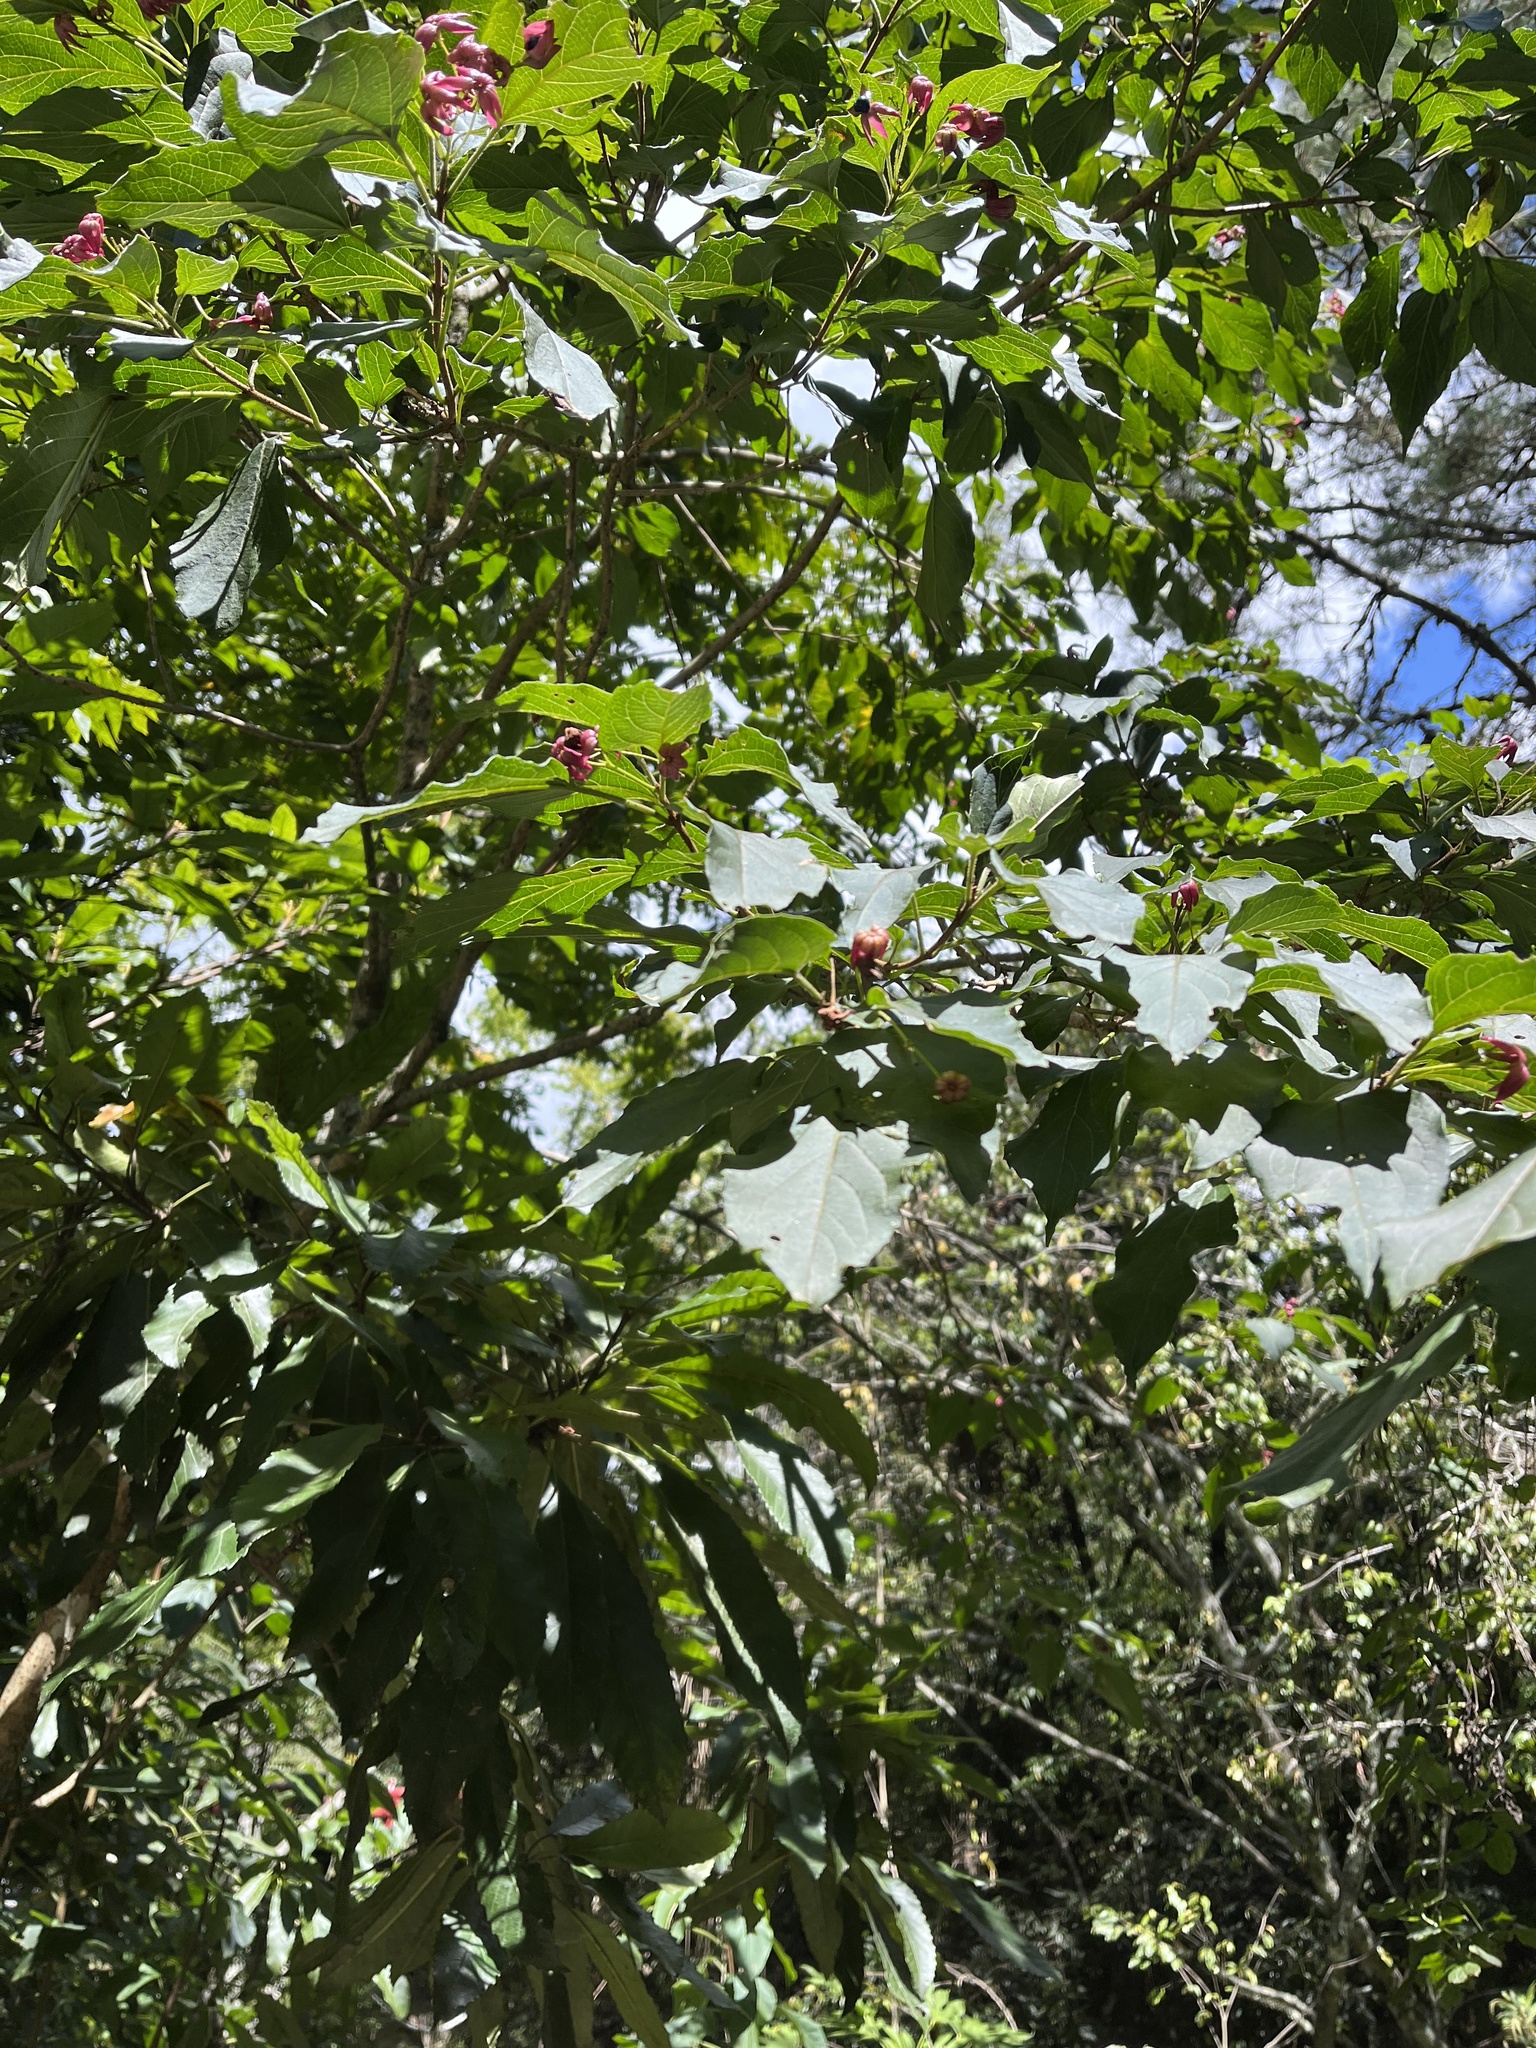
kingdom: Plantae
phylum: Tracheophyta
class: Magnoliopsida
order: Lamiales
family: Lamiaceae
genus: Clerodendrum
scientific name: Clerodendrum trichotomum
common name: Harlequin glorybower
